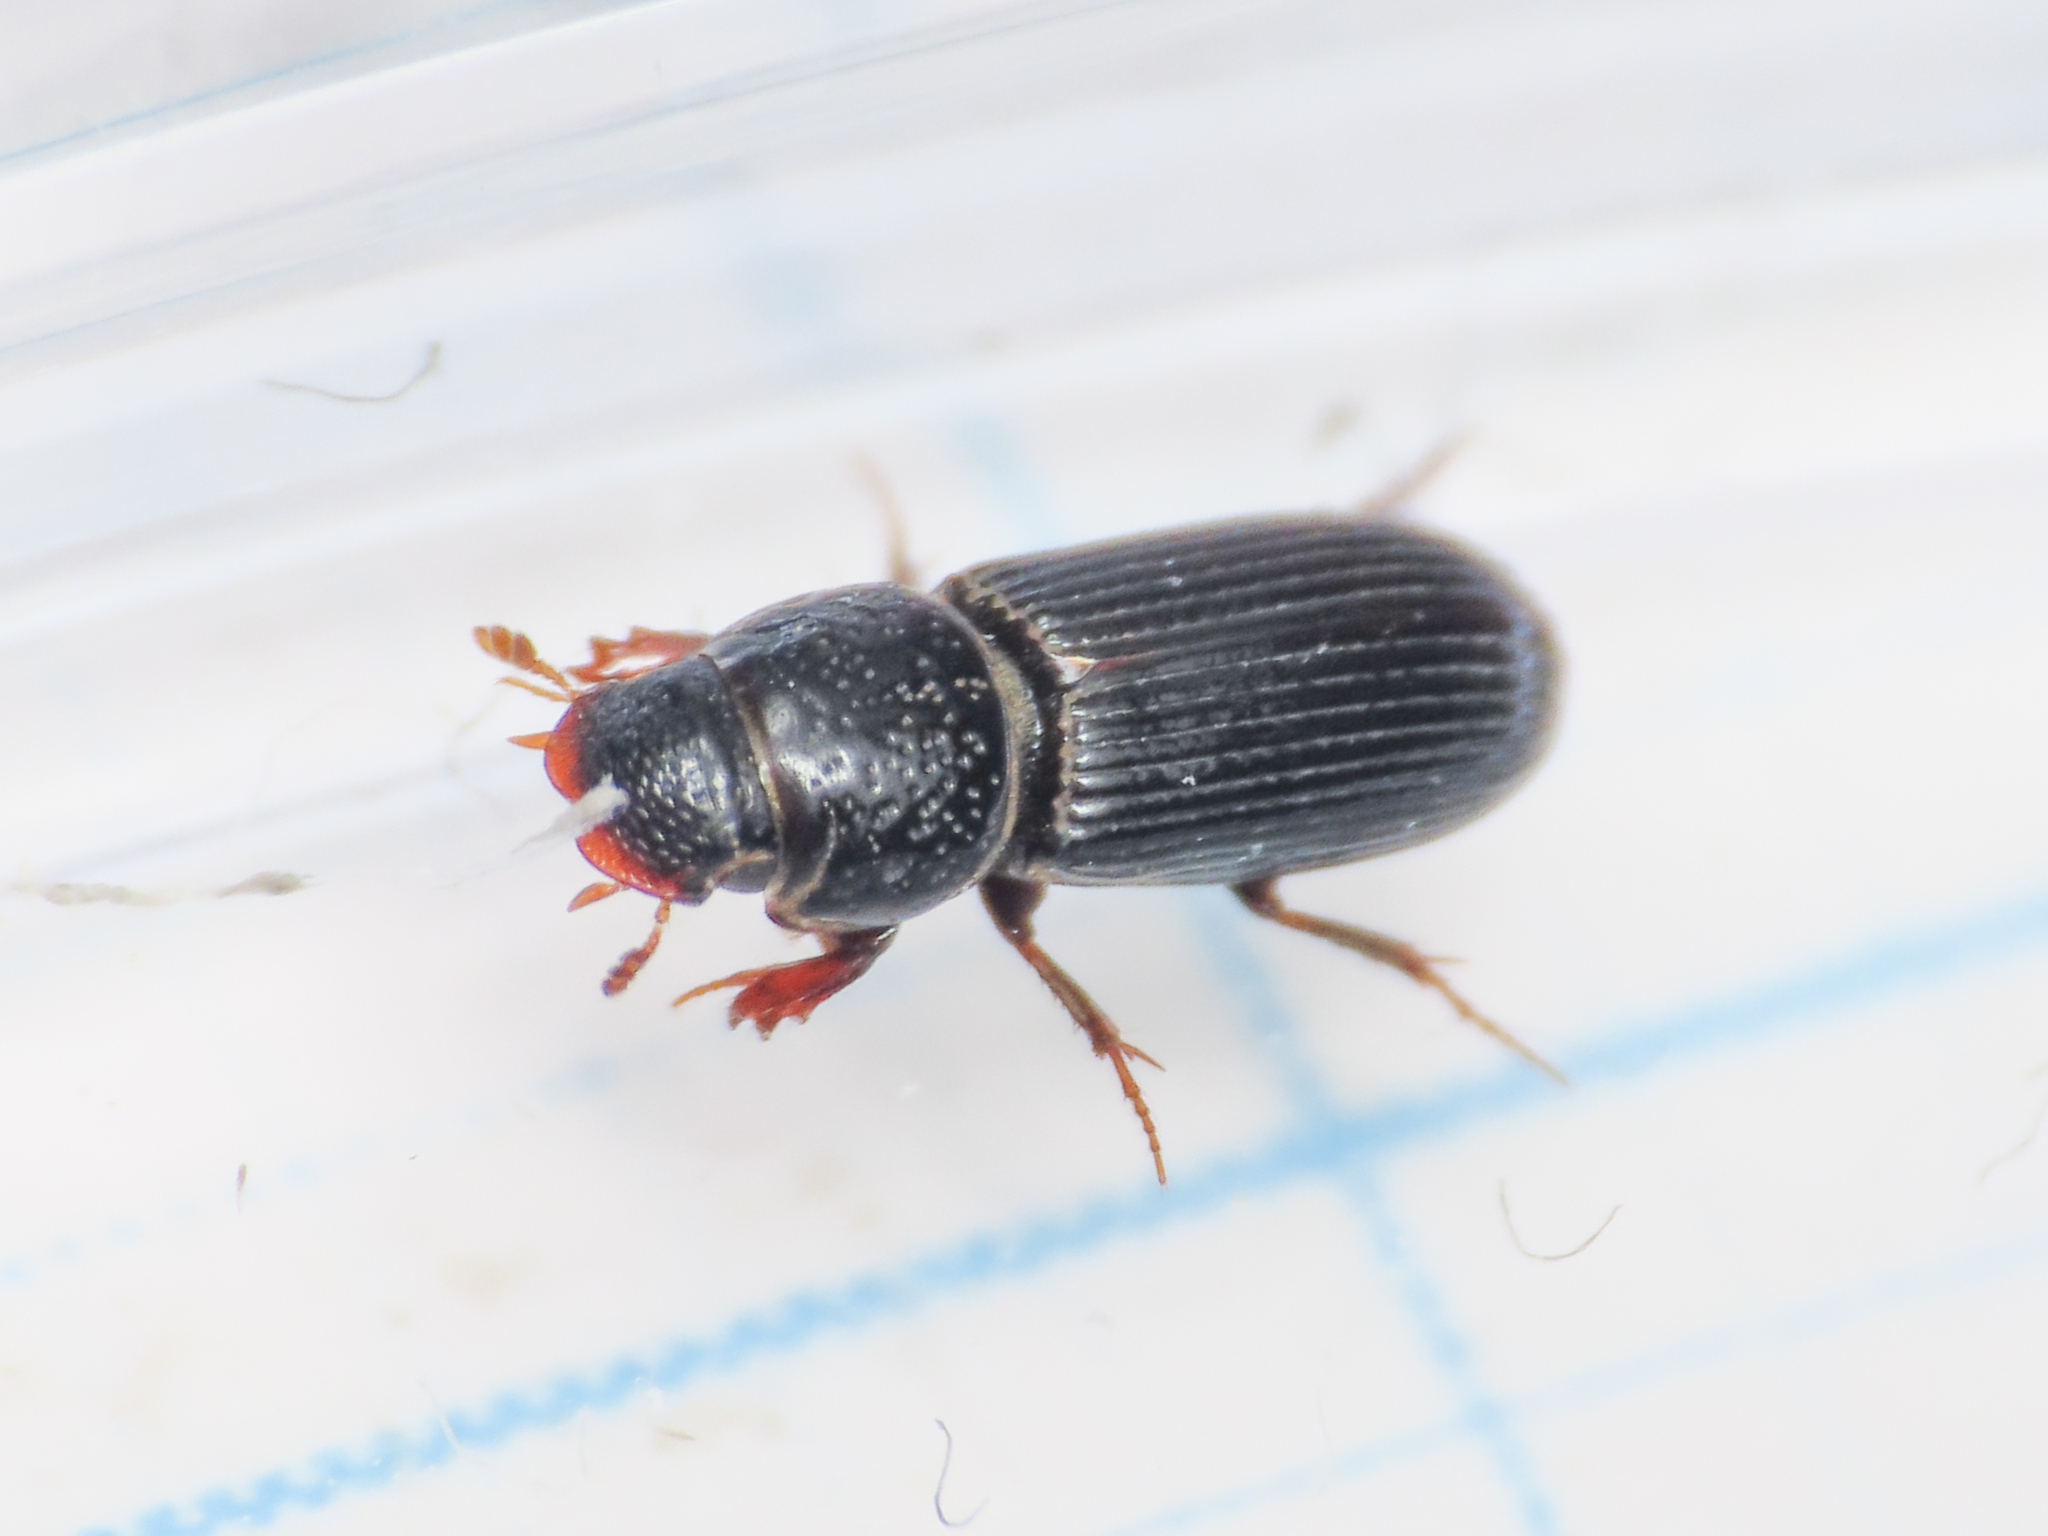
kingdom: Animalia
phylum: Arthropoda
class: Insecta
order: Coleoptera
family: Scarabaeidae
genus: Pleurophorus
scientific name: Pleurophorus caesus
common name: Cut small dung beetle
